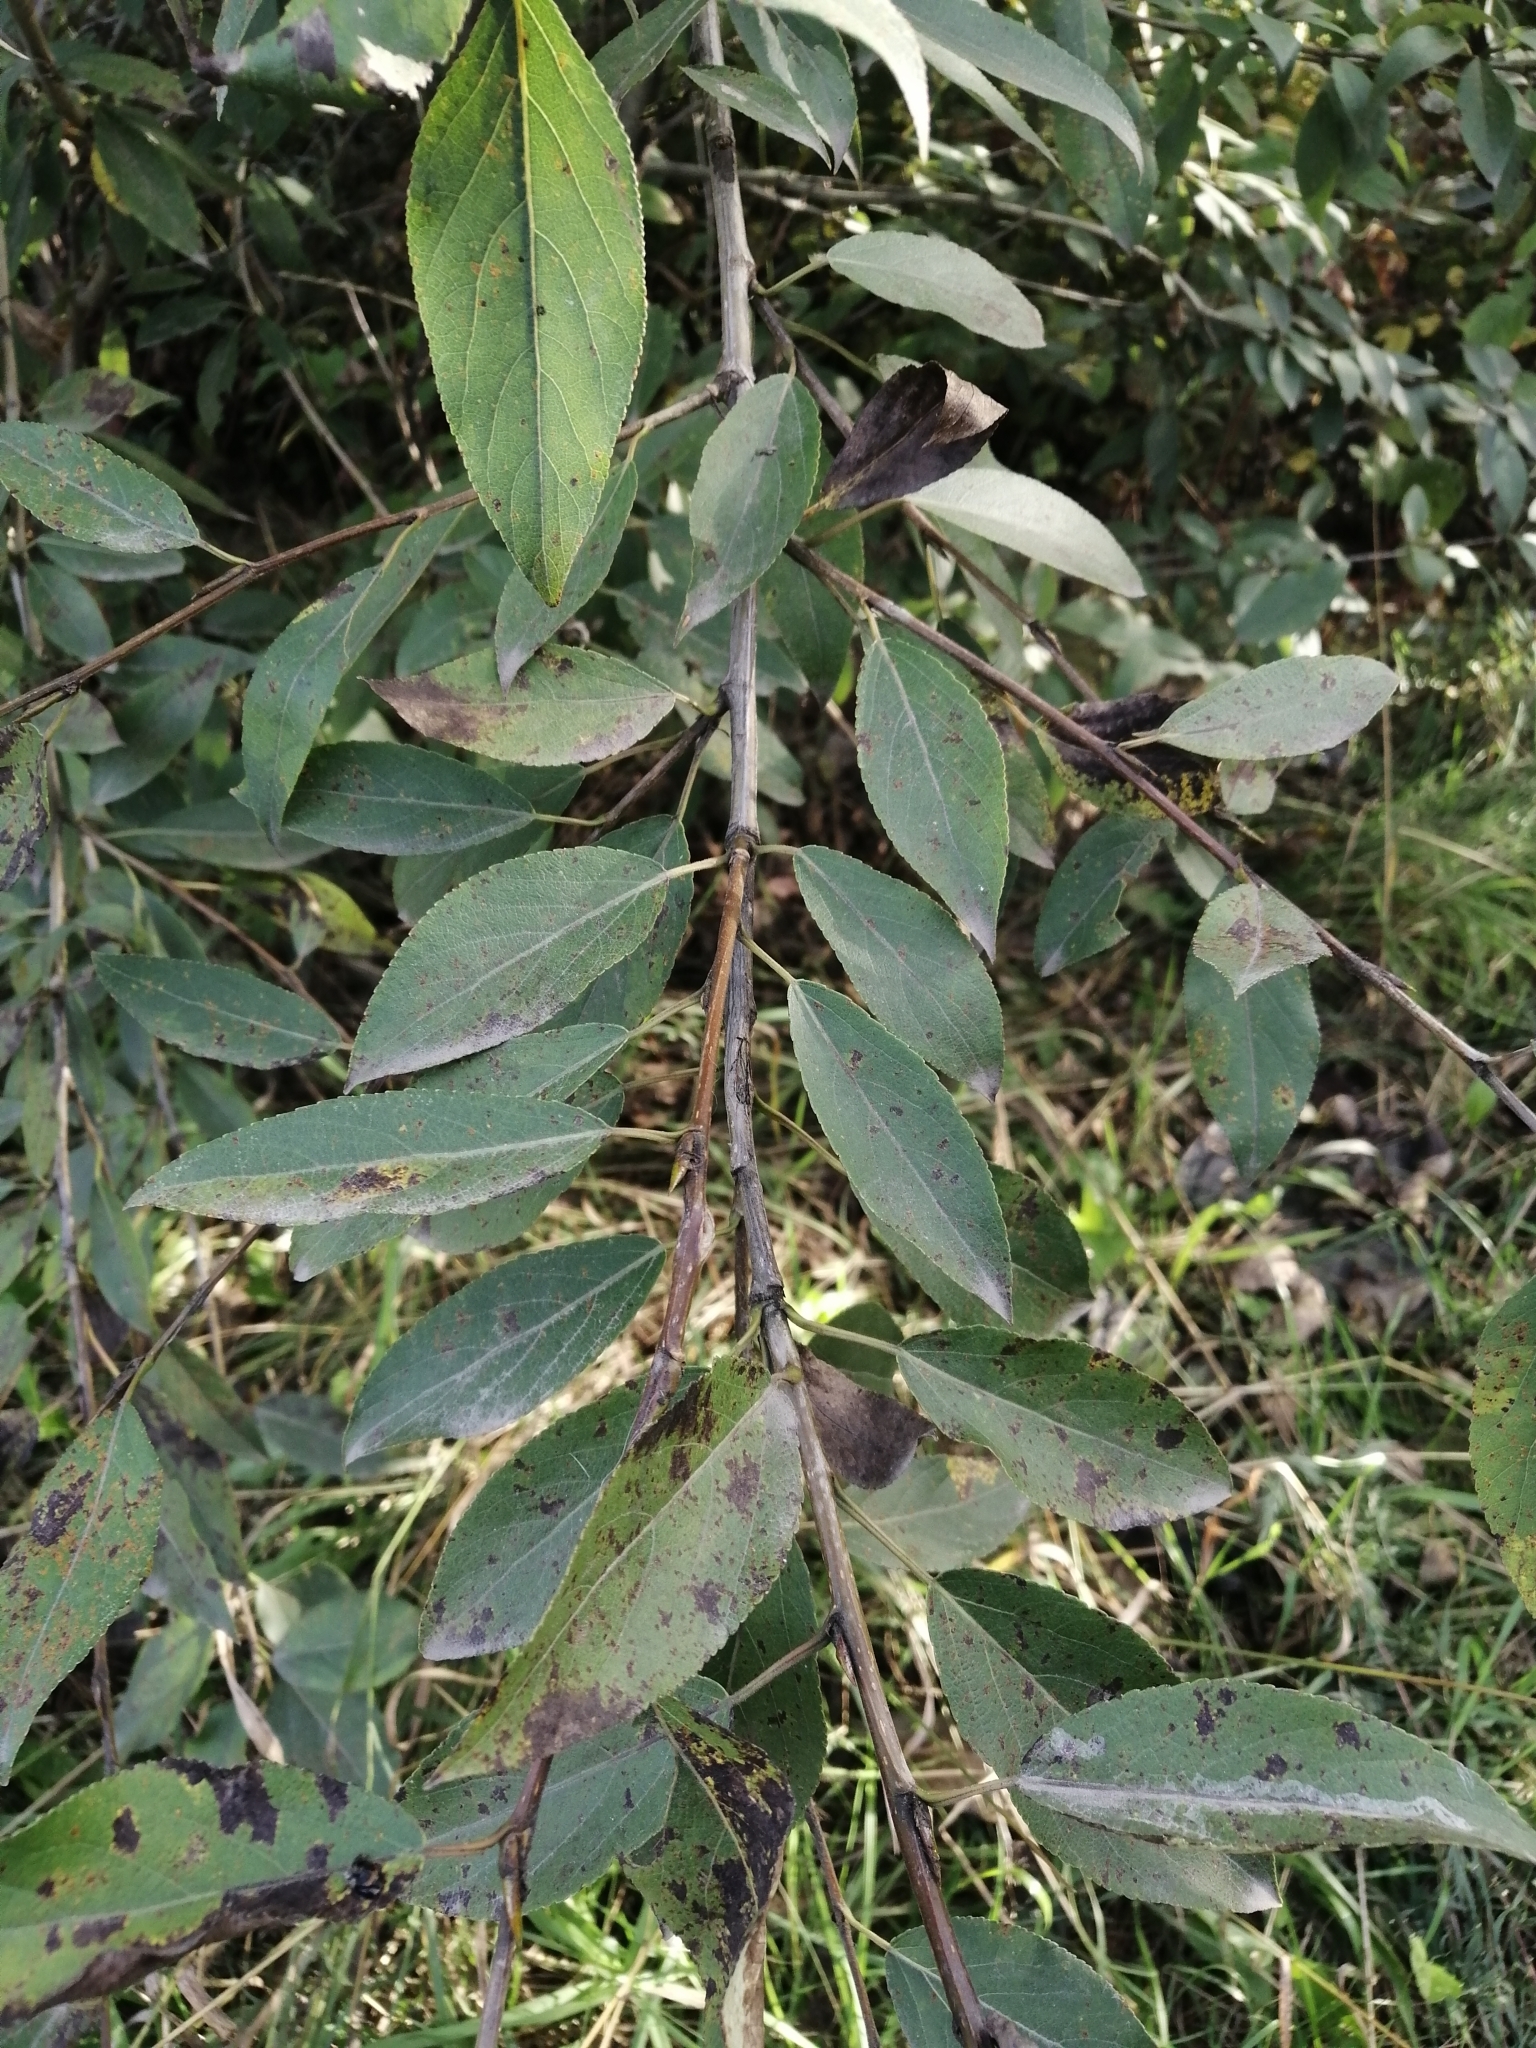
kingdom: Plantae
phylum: Tracheophyta
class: Magnoliopsida
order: Malpighiales
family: Salicaceae
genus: Populus
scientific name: Populus laurifolia
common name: Laurel-leaf poplar
